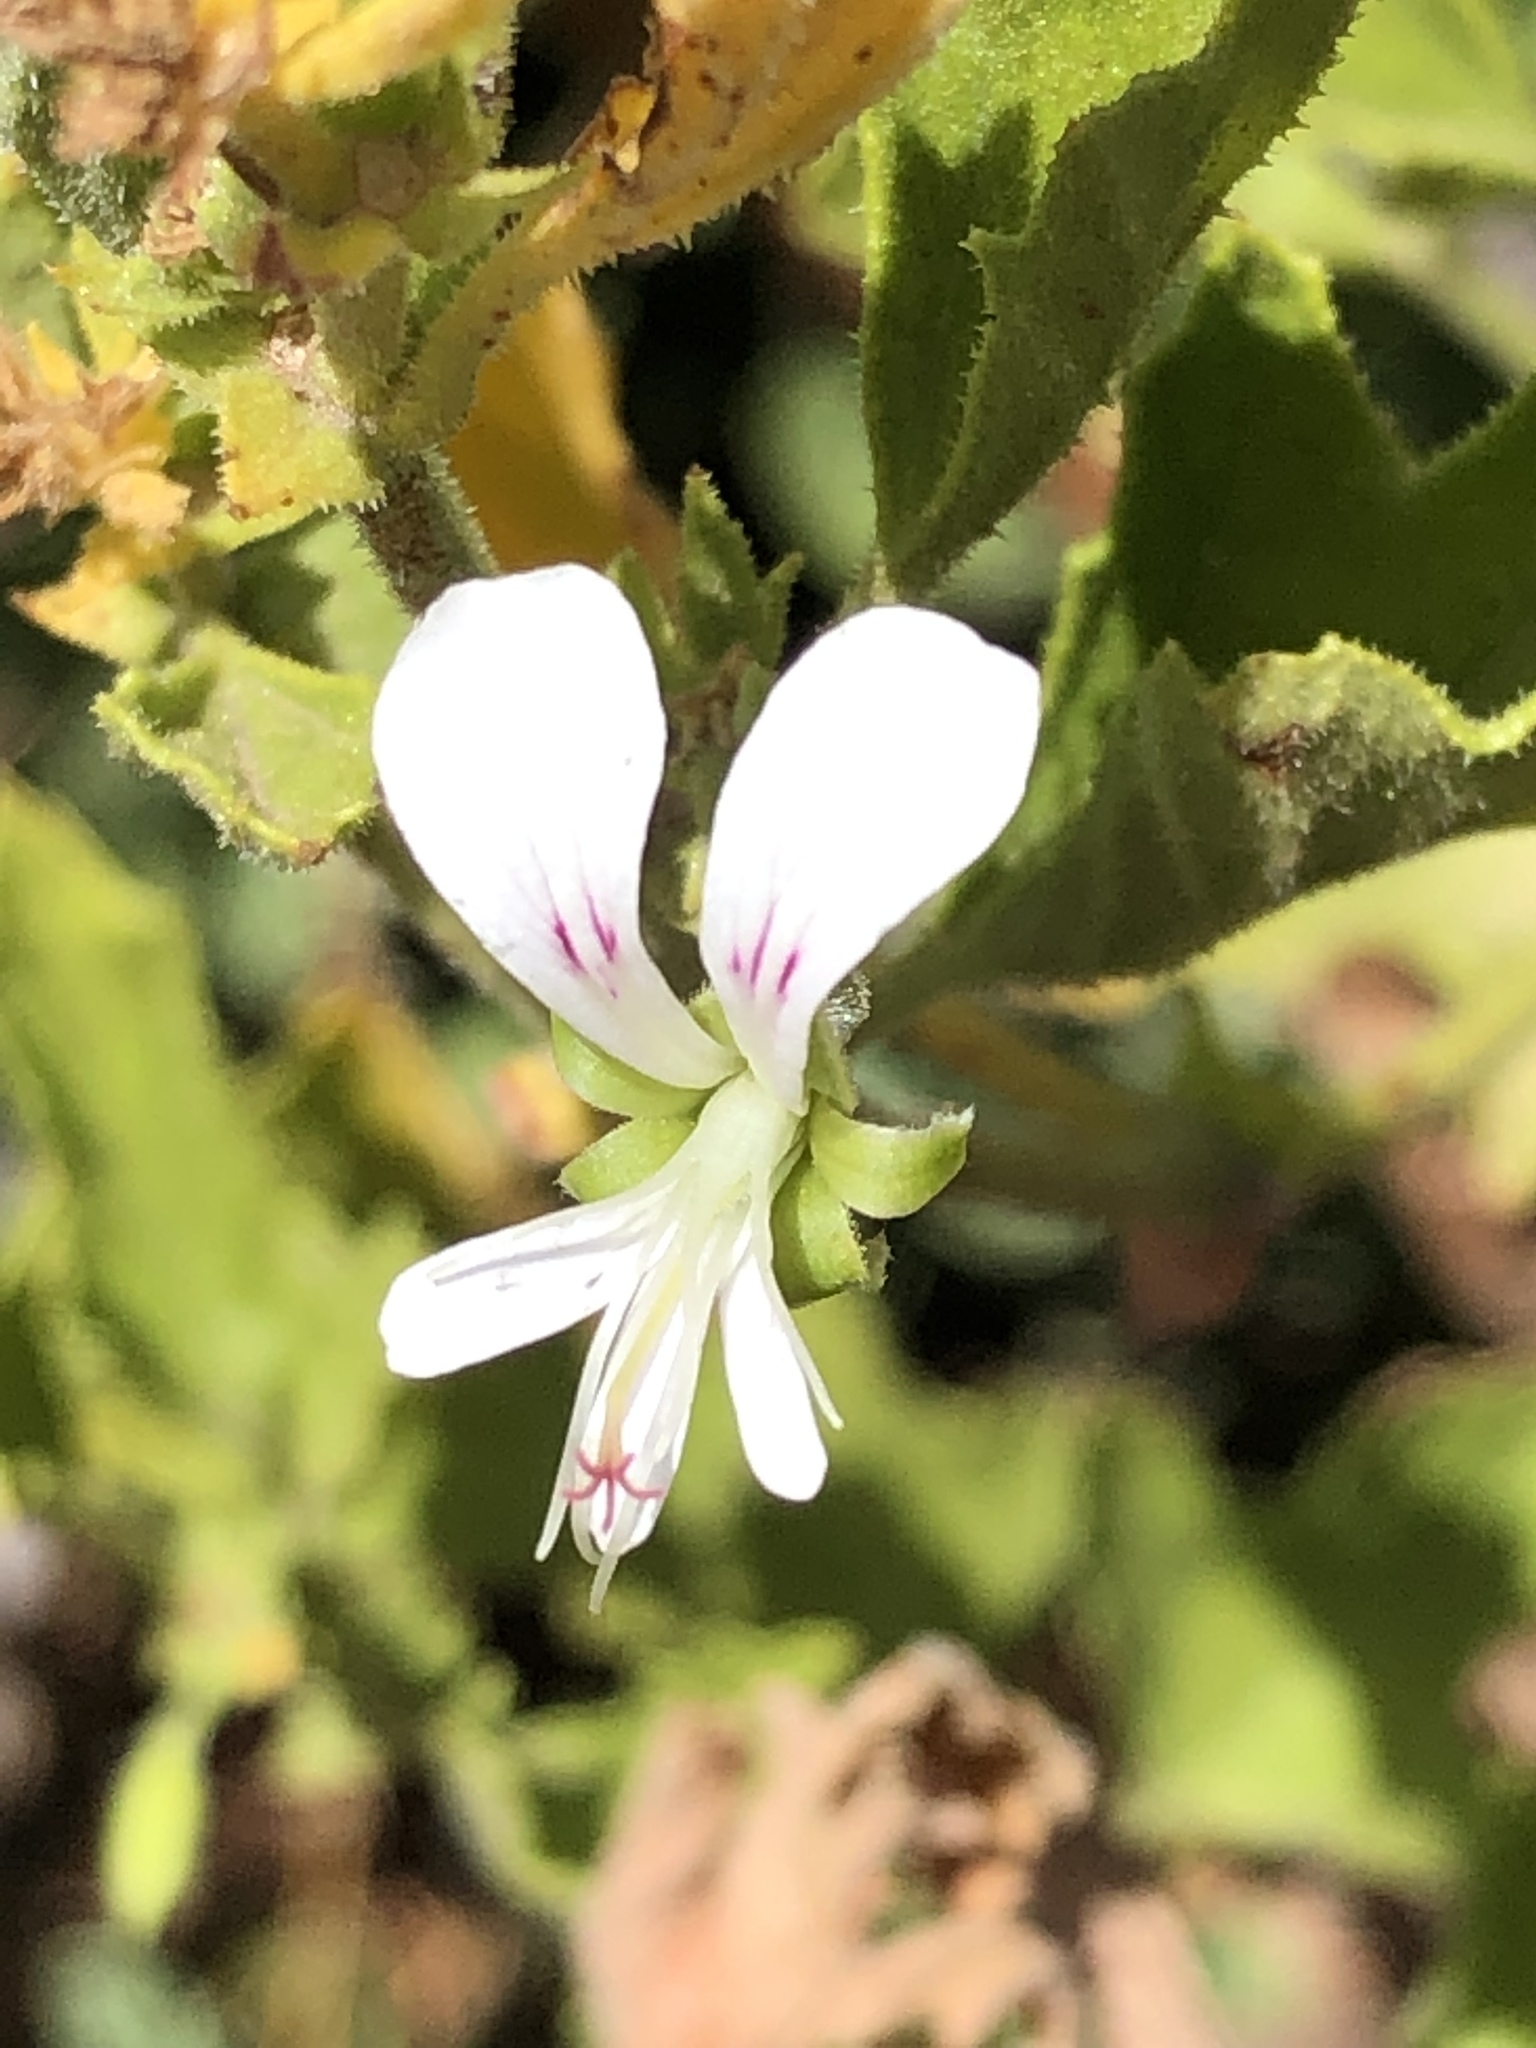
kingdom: Plantae
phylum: Tracheophyta
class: Magnoliopsida
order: Geraniales
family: Geraniaceae
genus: Pelargonium
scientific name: Pelargonium scabrum
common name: Apricot geranium
